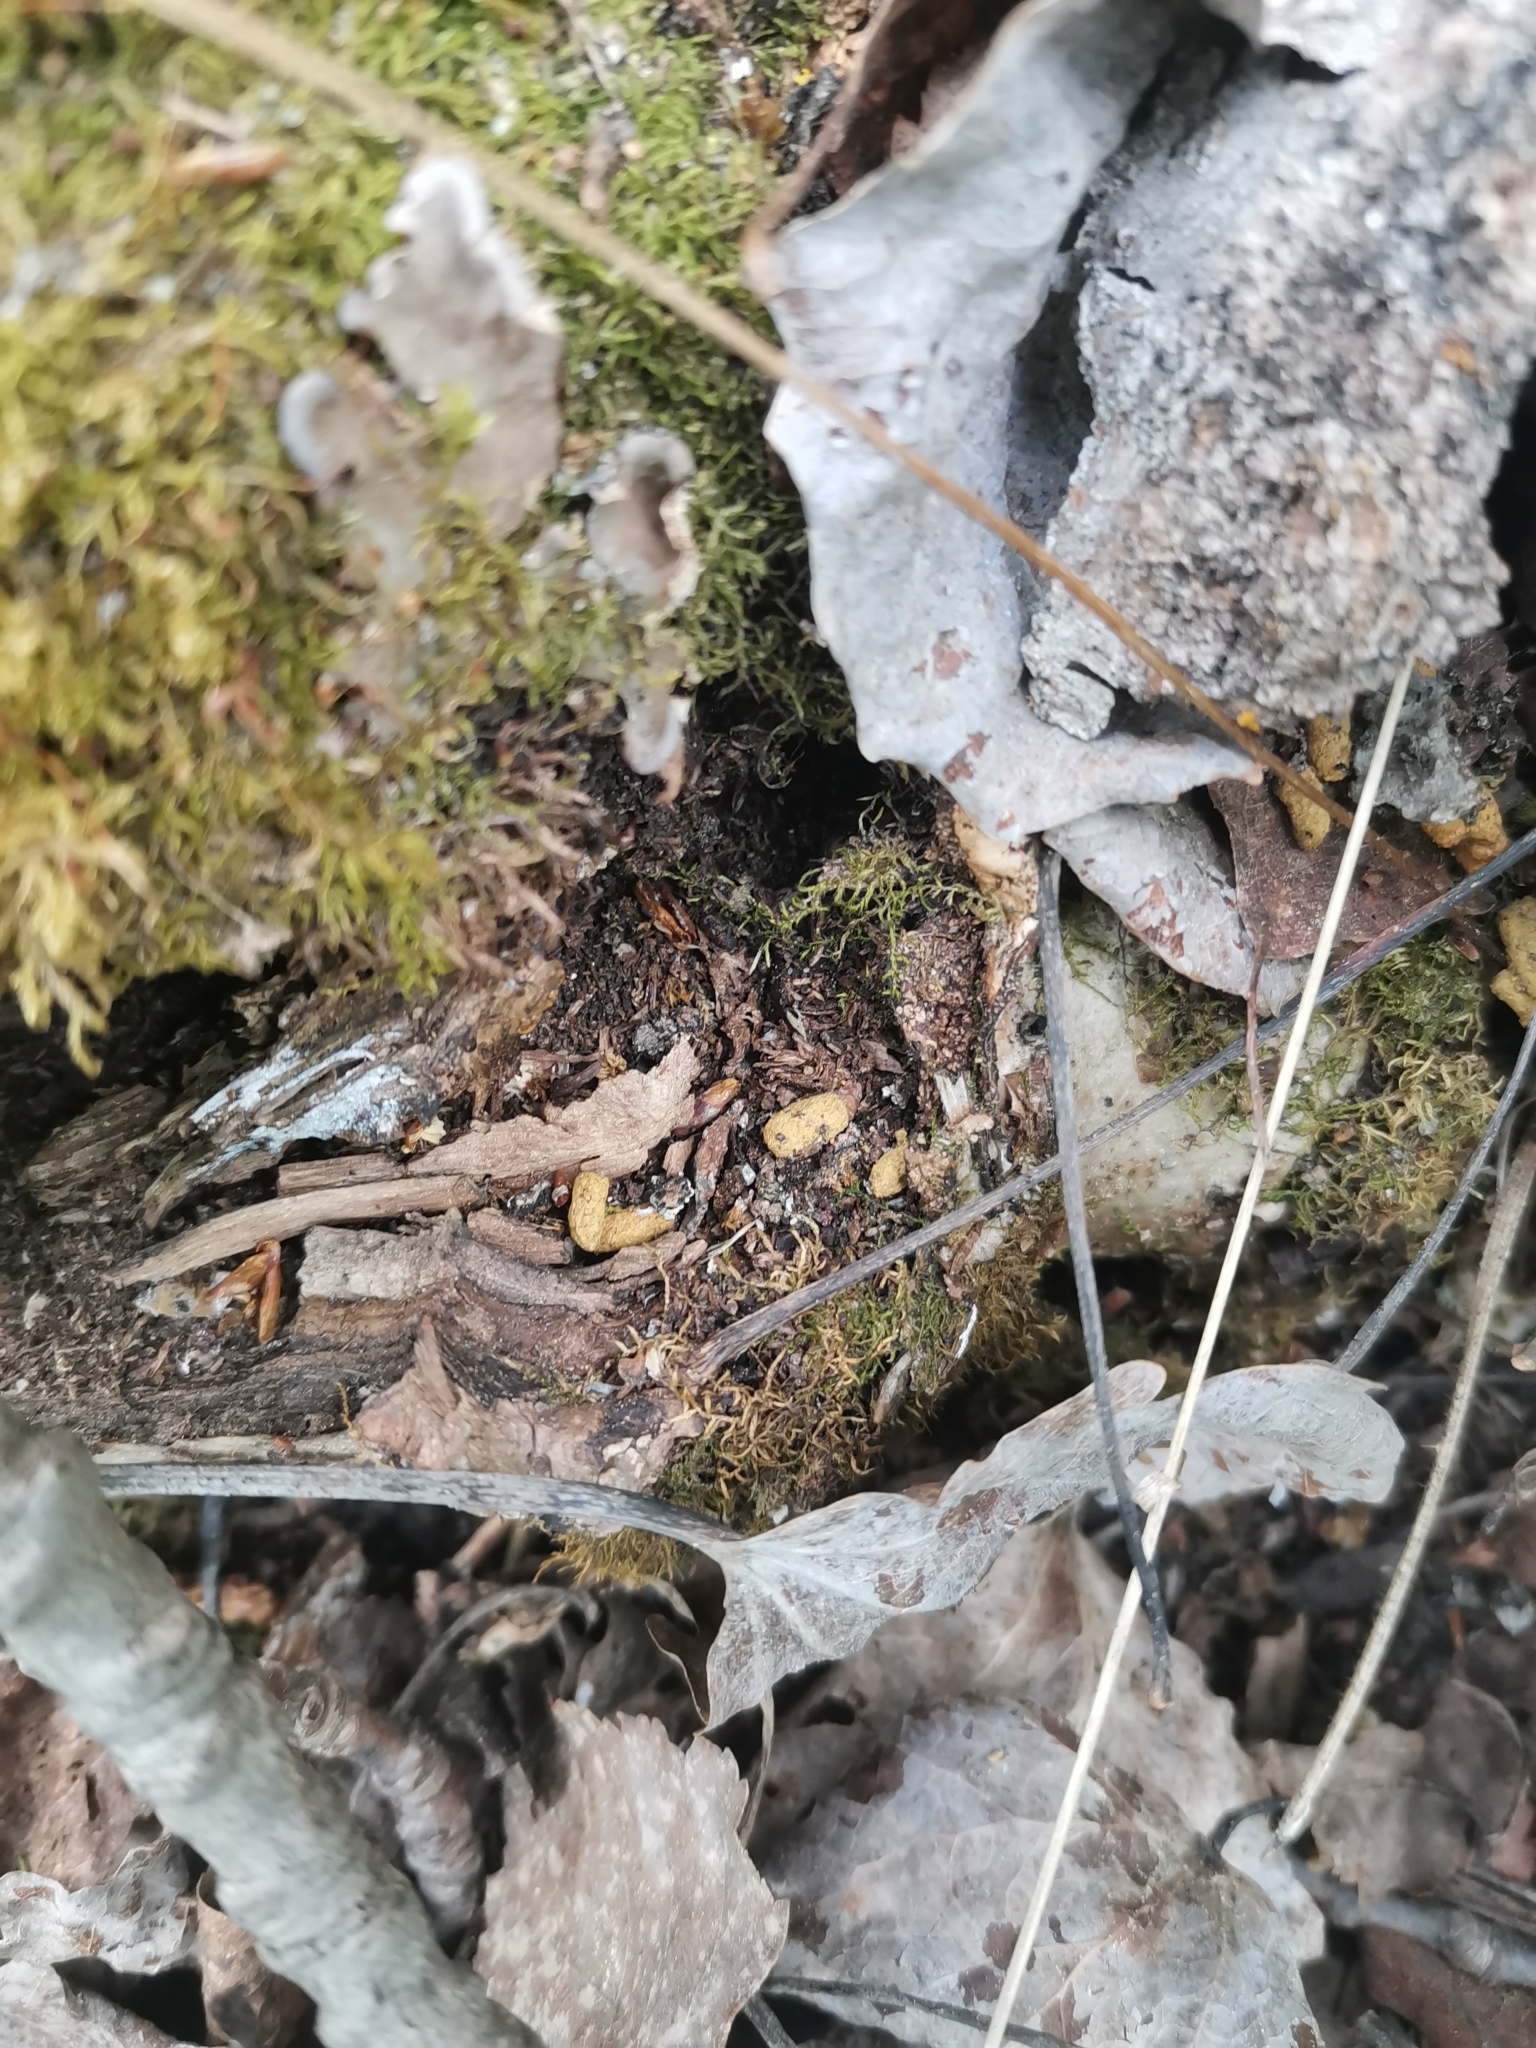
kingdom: Animalia
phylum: Chordata
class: Mammalia
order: Rodentia
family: Sciuridae
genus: Pteromys
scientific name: Pteromys volans
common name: Siberian flying squirrel
